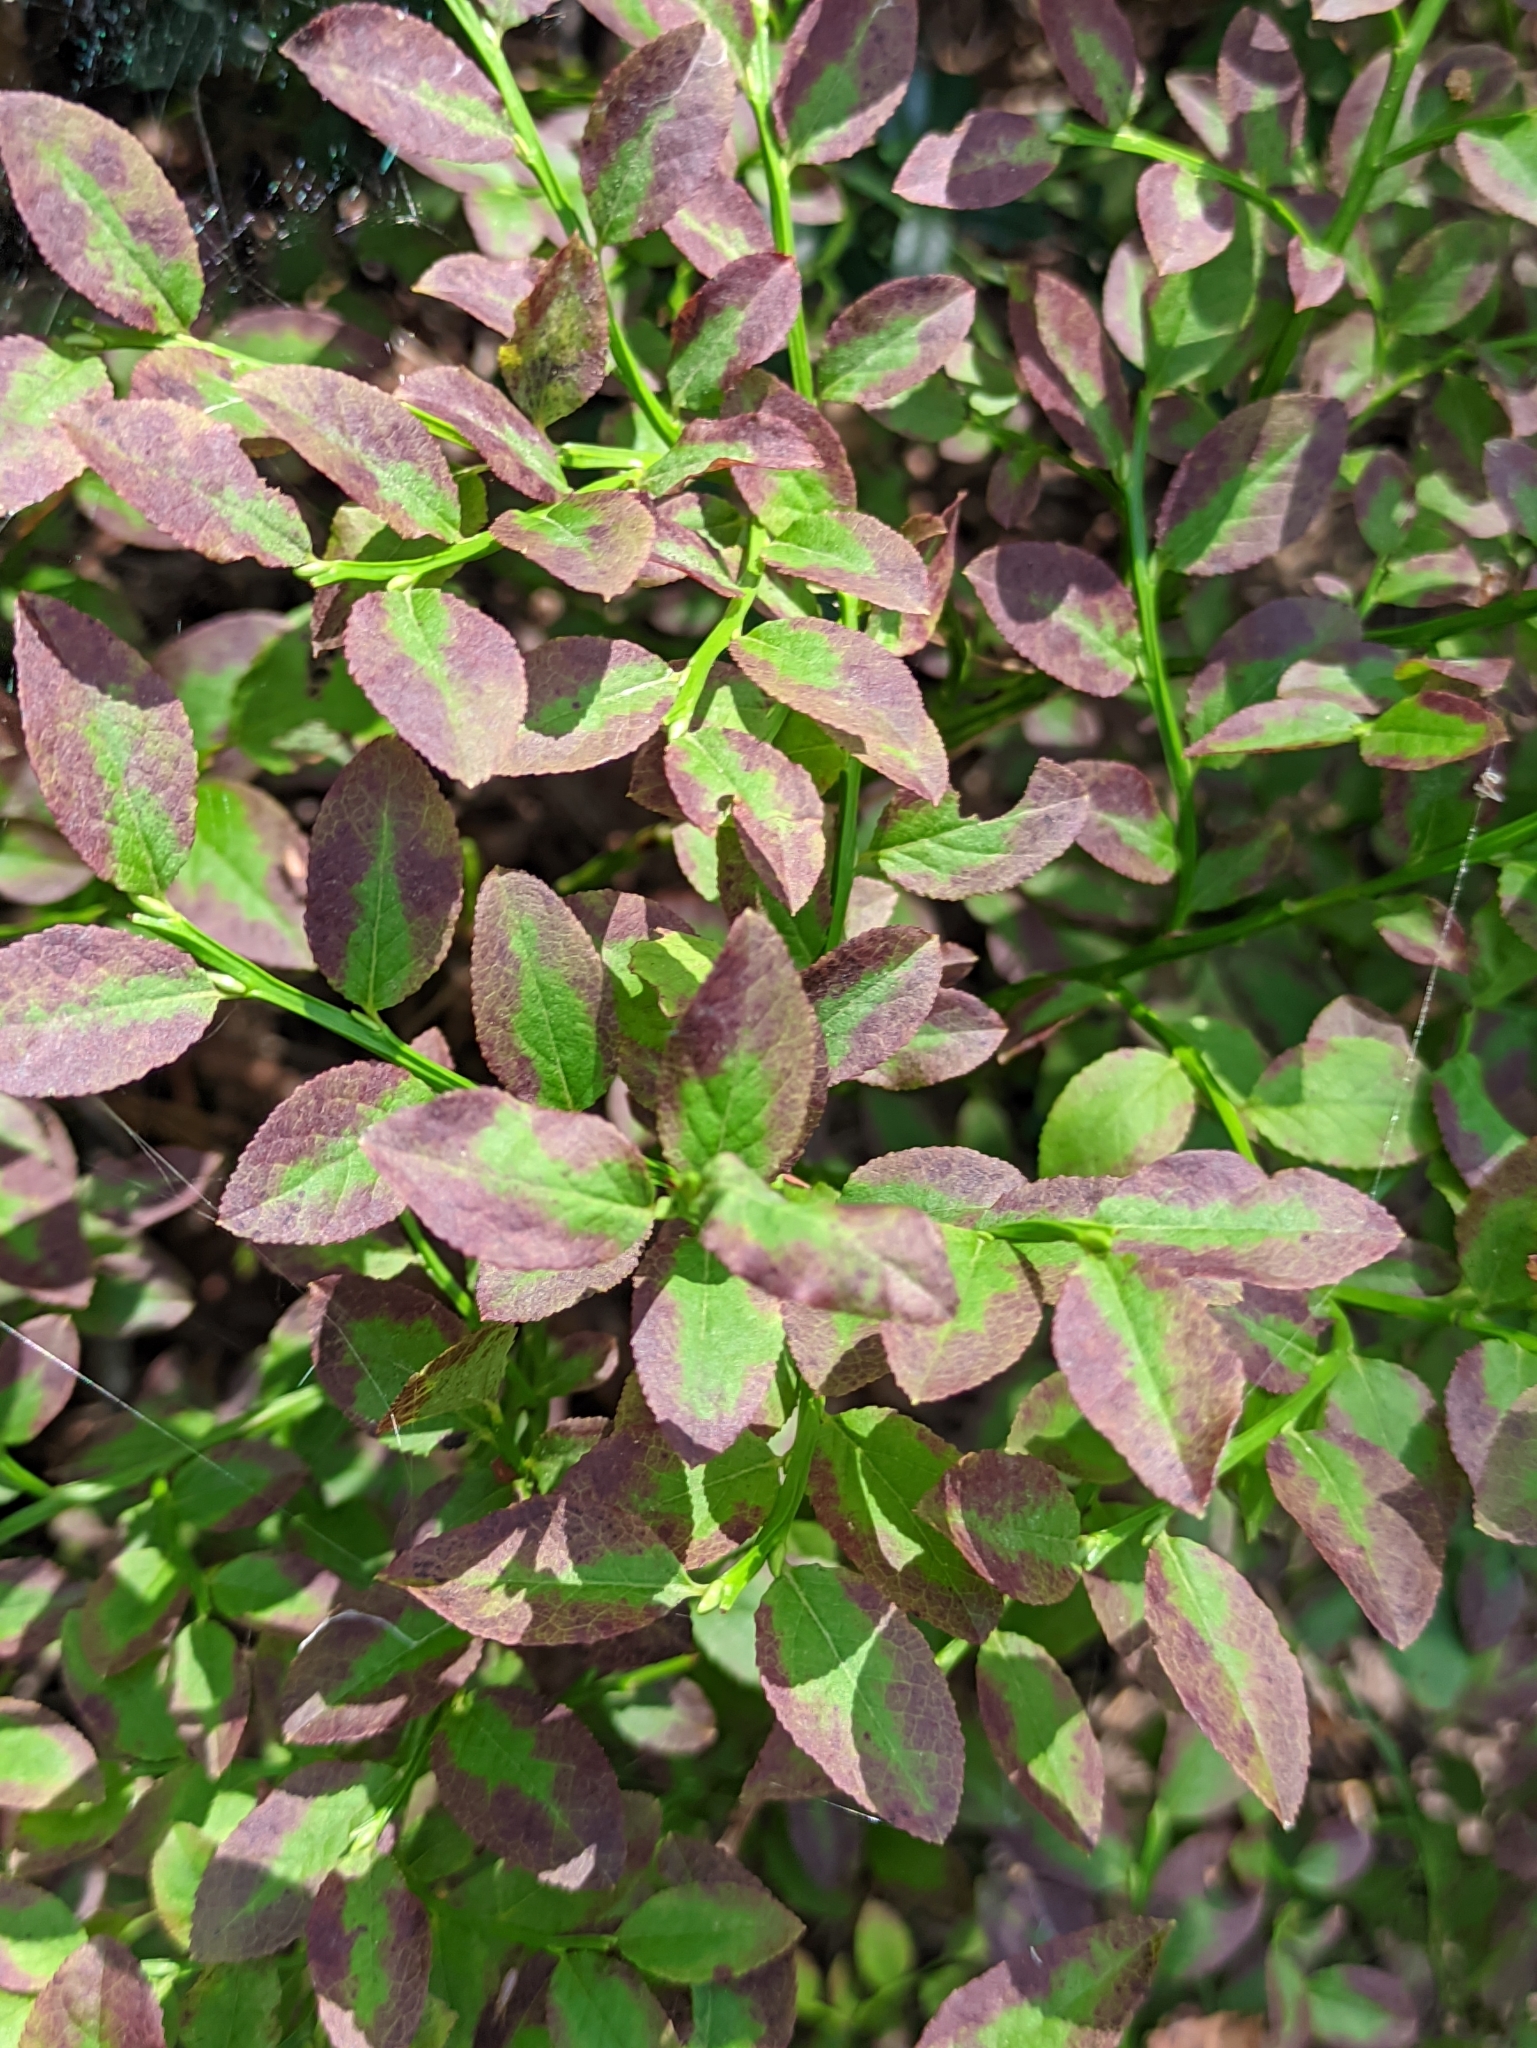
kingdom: Plantae
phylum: Tracheophyta
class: Magnoliopsida
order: Ericales
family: Ericaceae
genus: Vaccinium
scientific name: Vaccinium myrtillus
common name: Bilberry
